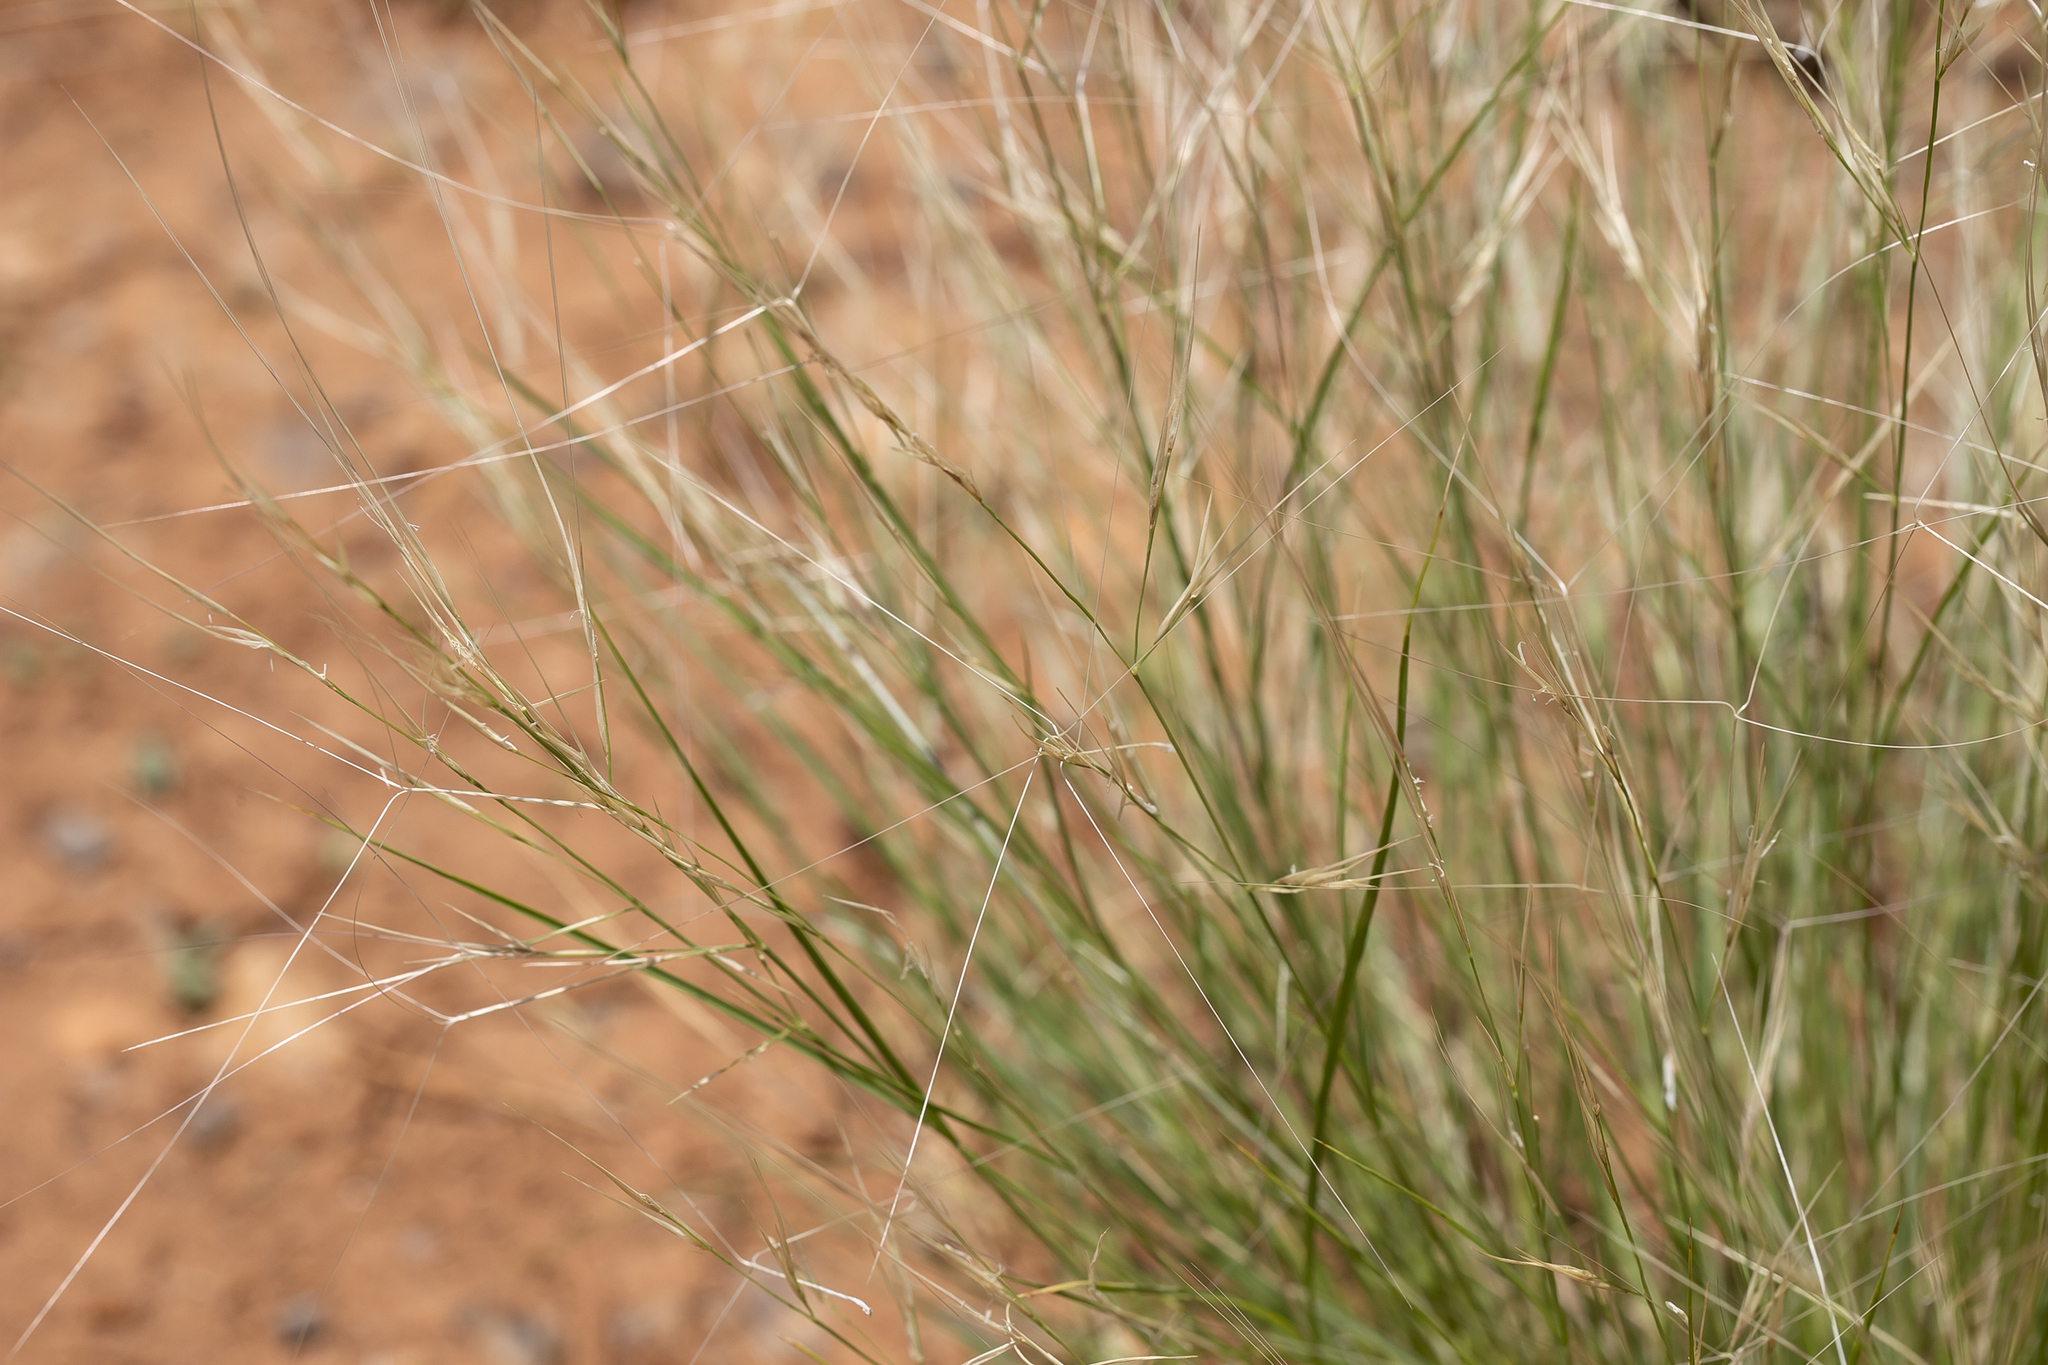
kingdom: Plantae
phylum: Tracheophyta
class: Liliopsida
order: Poales
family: Poaceae
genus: Aristida
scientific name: Aristida contorta
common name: Bunch kerosene grass
